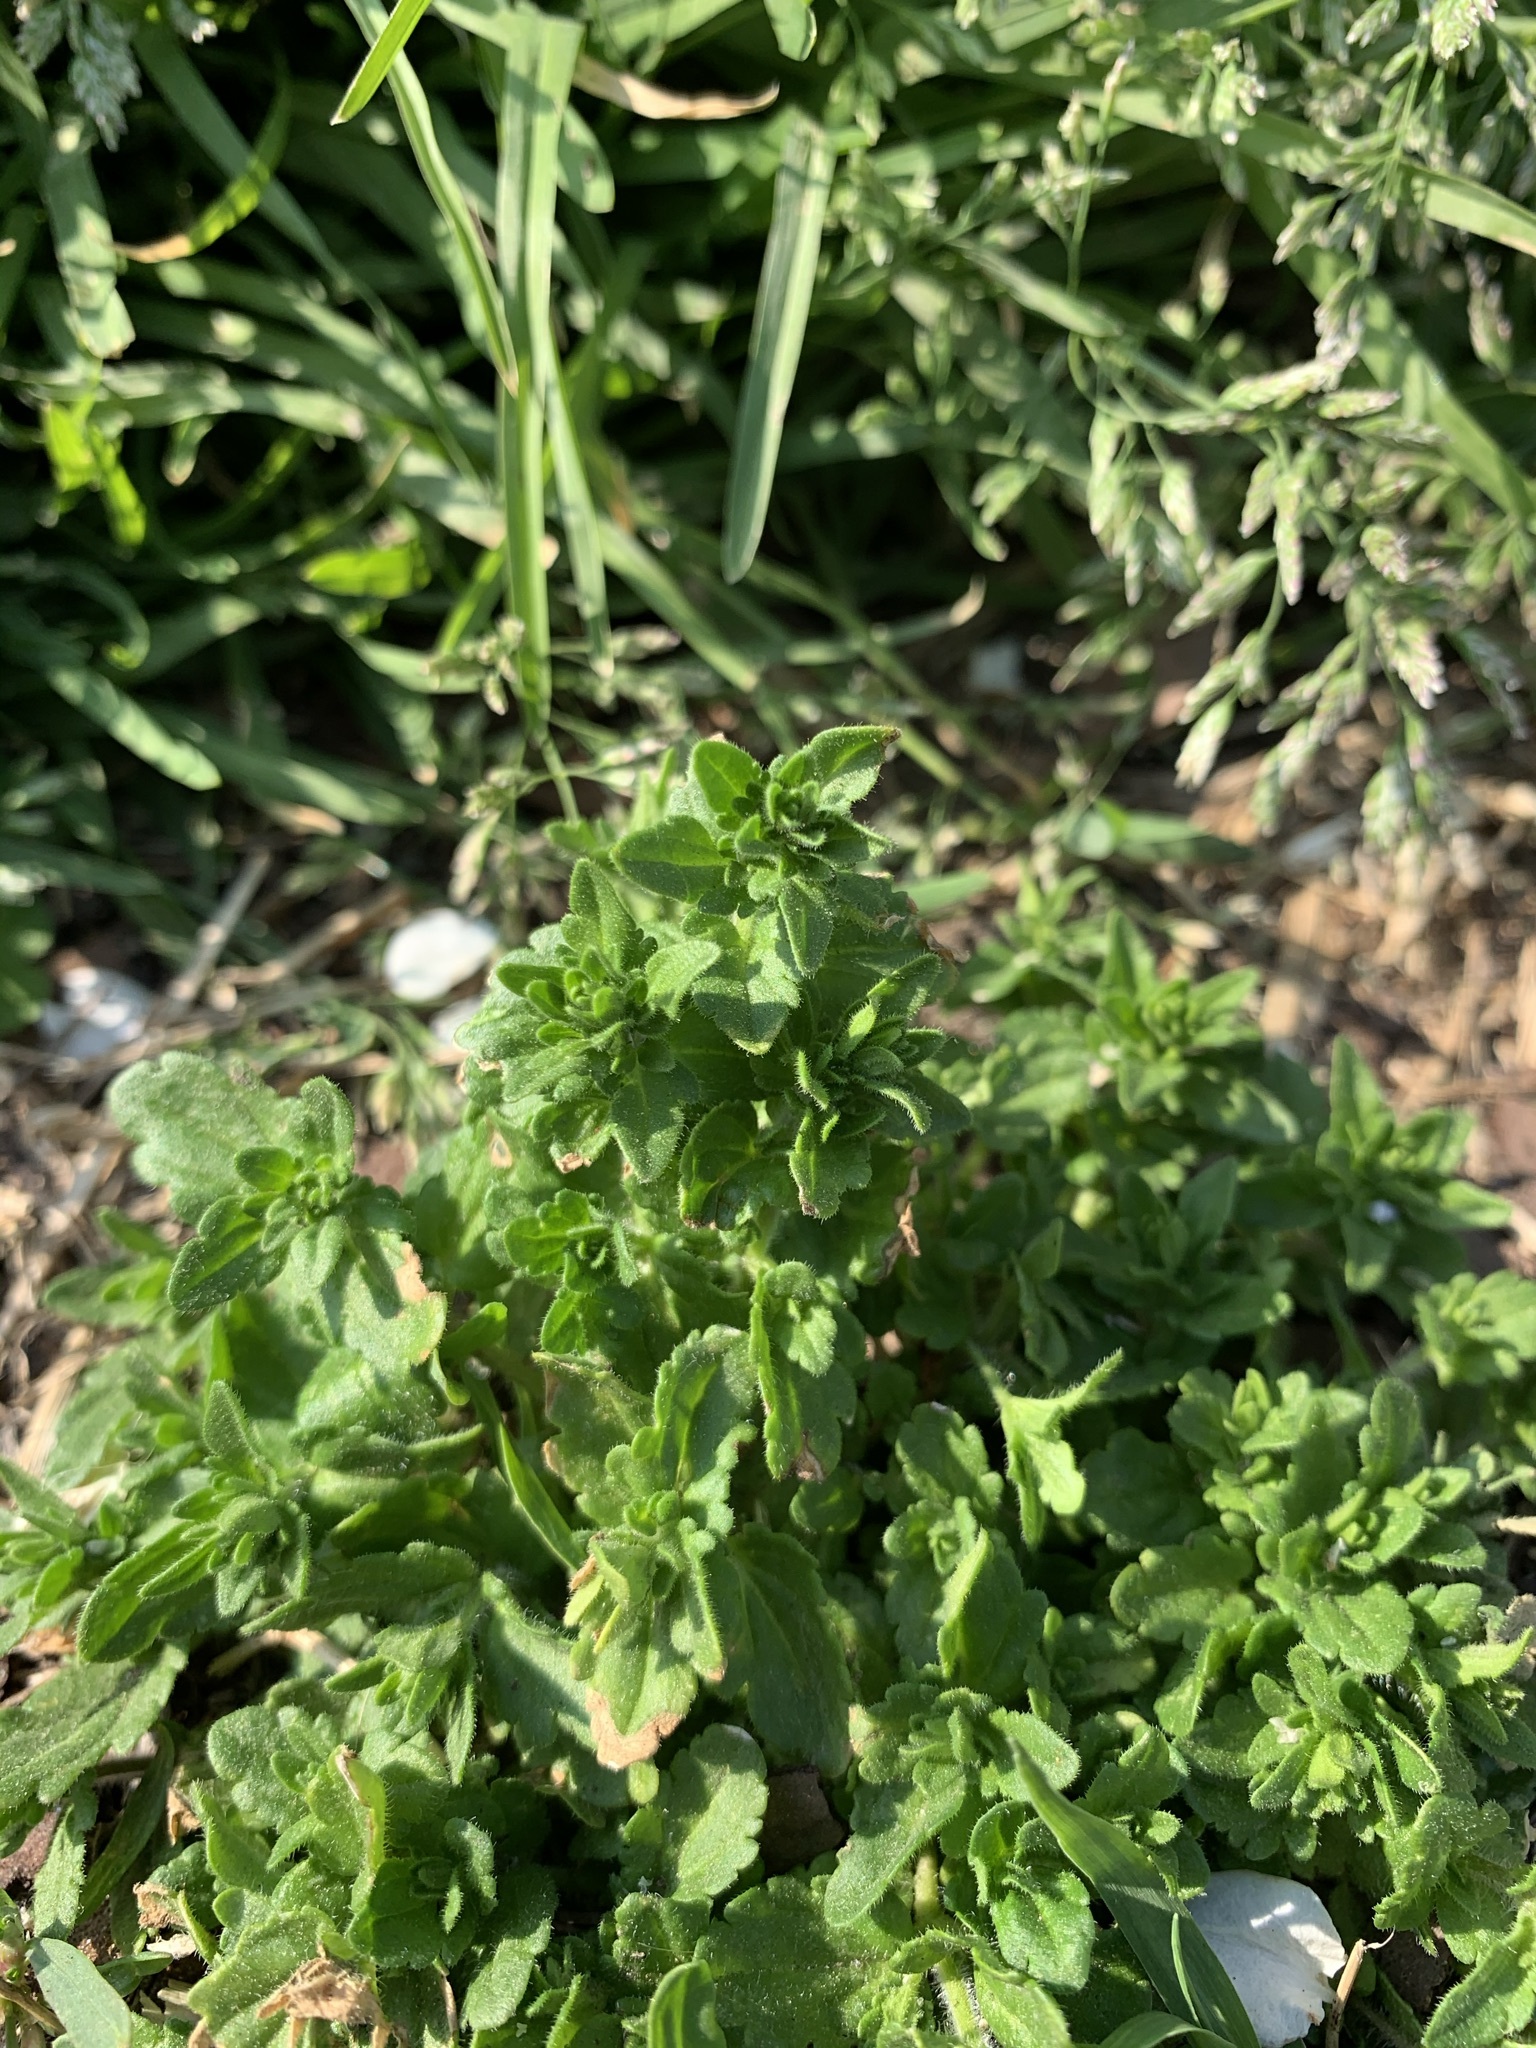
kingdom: Plantae
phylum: Tracheophyta
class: Magnoliopsida
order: Lamiales
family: Plantaginaceae
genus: Veronica
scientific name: Veronica arvensis
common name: Corn speedwell
